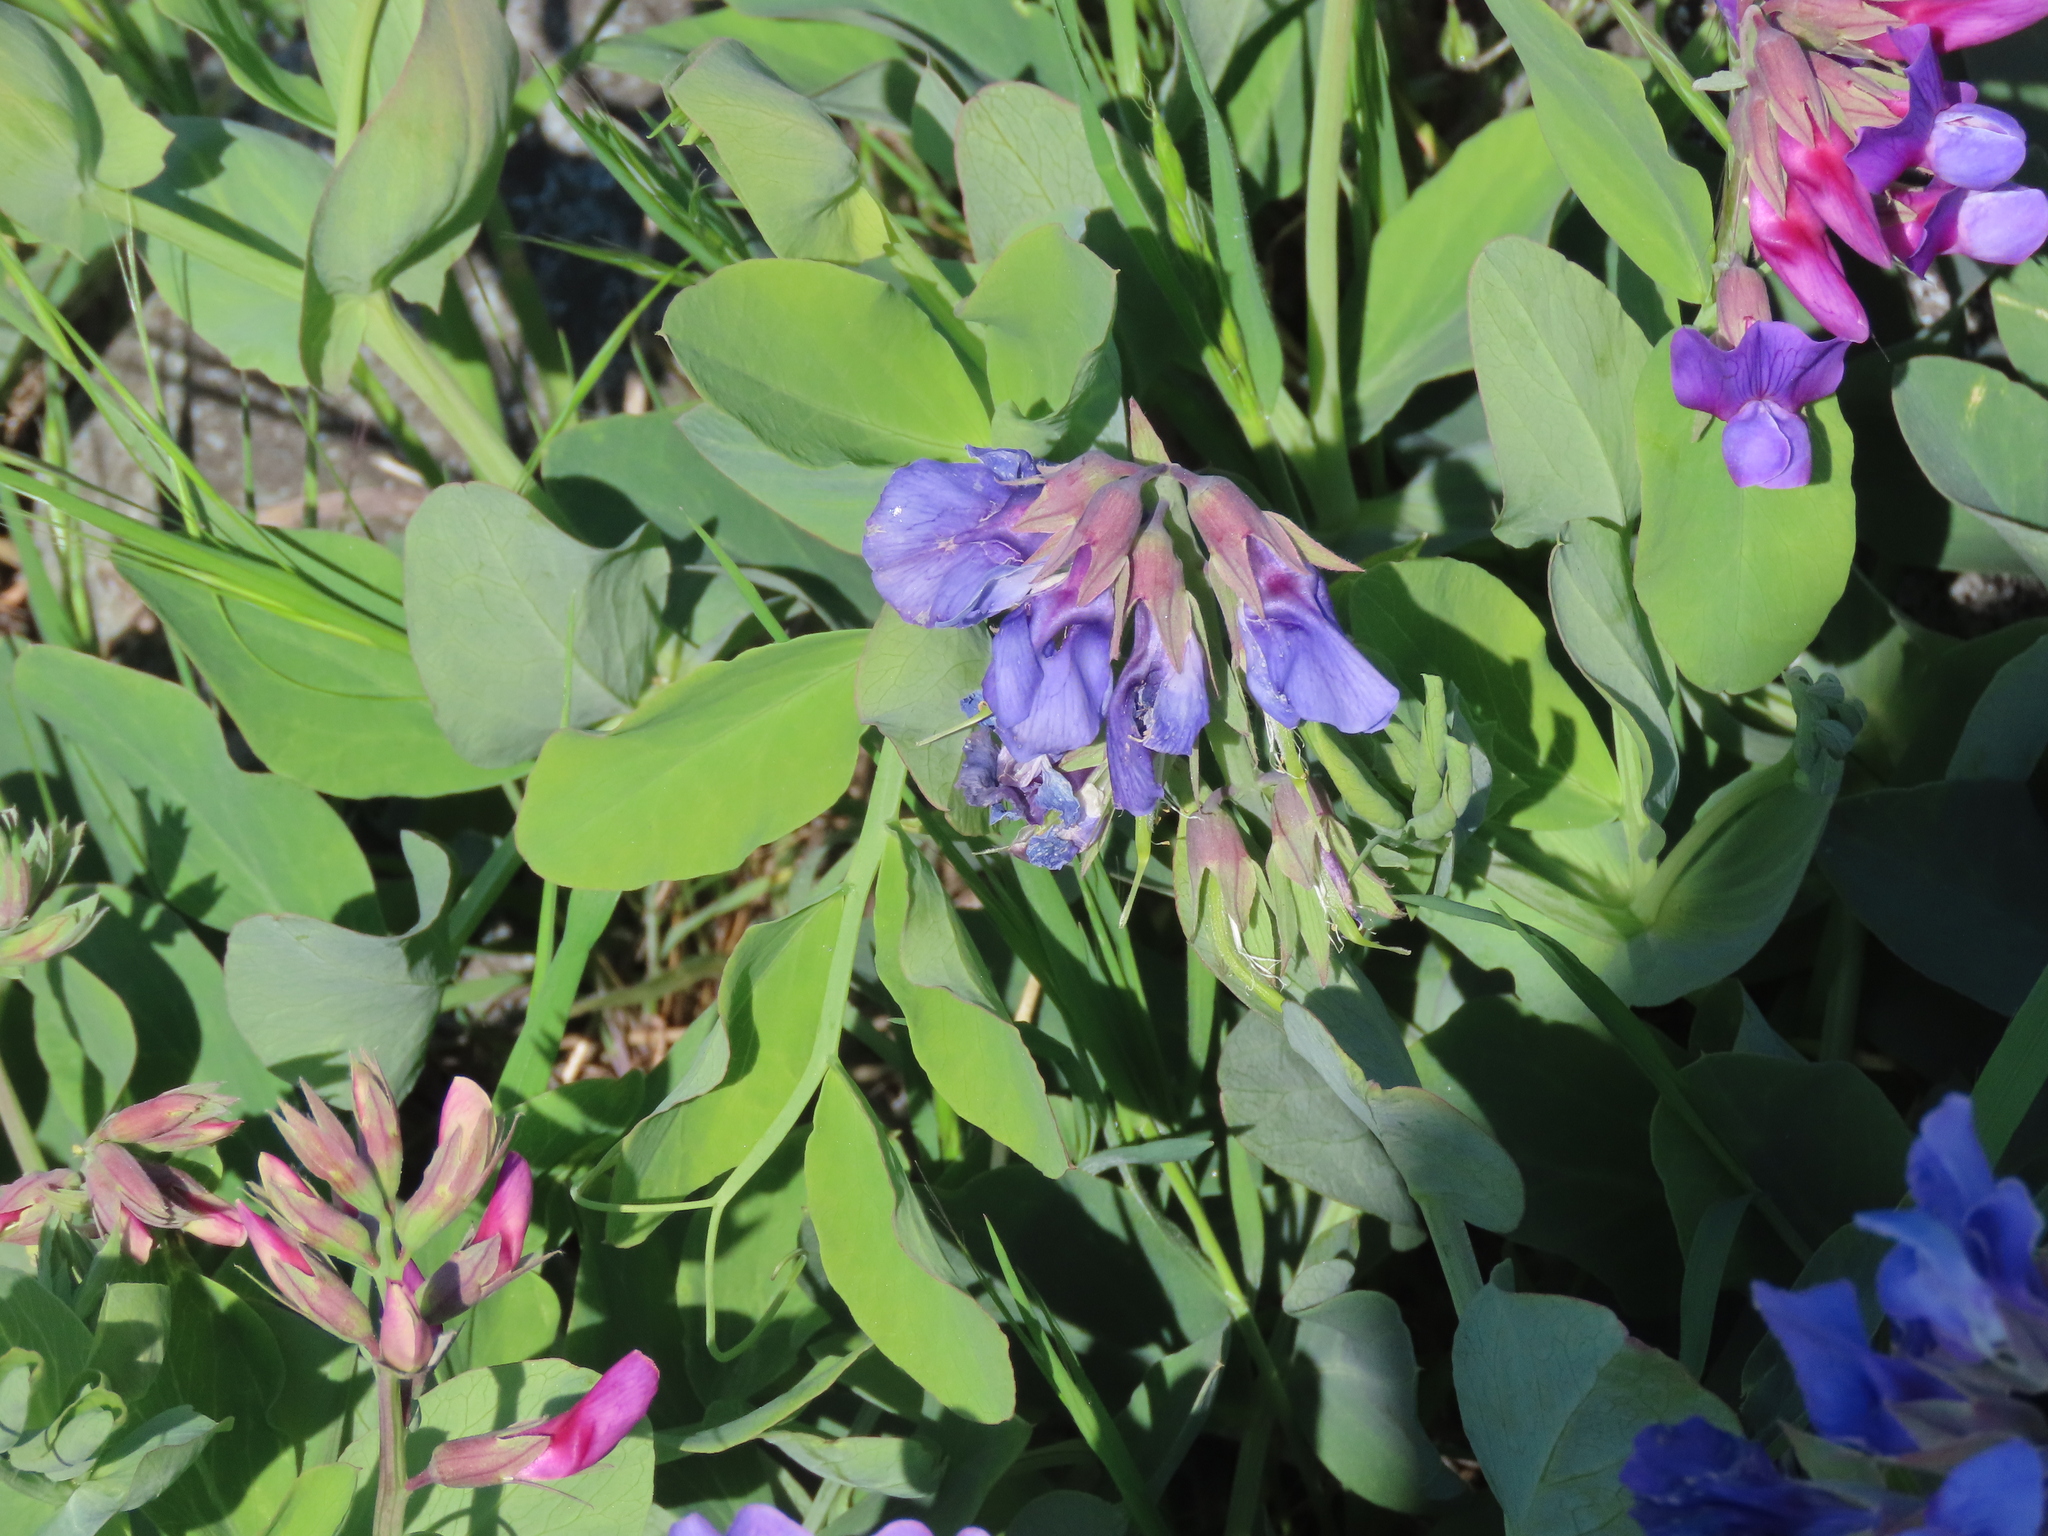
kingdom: Plantae
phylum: Tracheophyta
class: Magnoliopsida
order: Fabales
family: Fabaceae
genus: Lathyrus
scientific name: Lathyrus japonicus
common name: Sea pea
